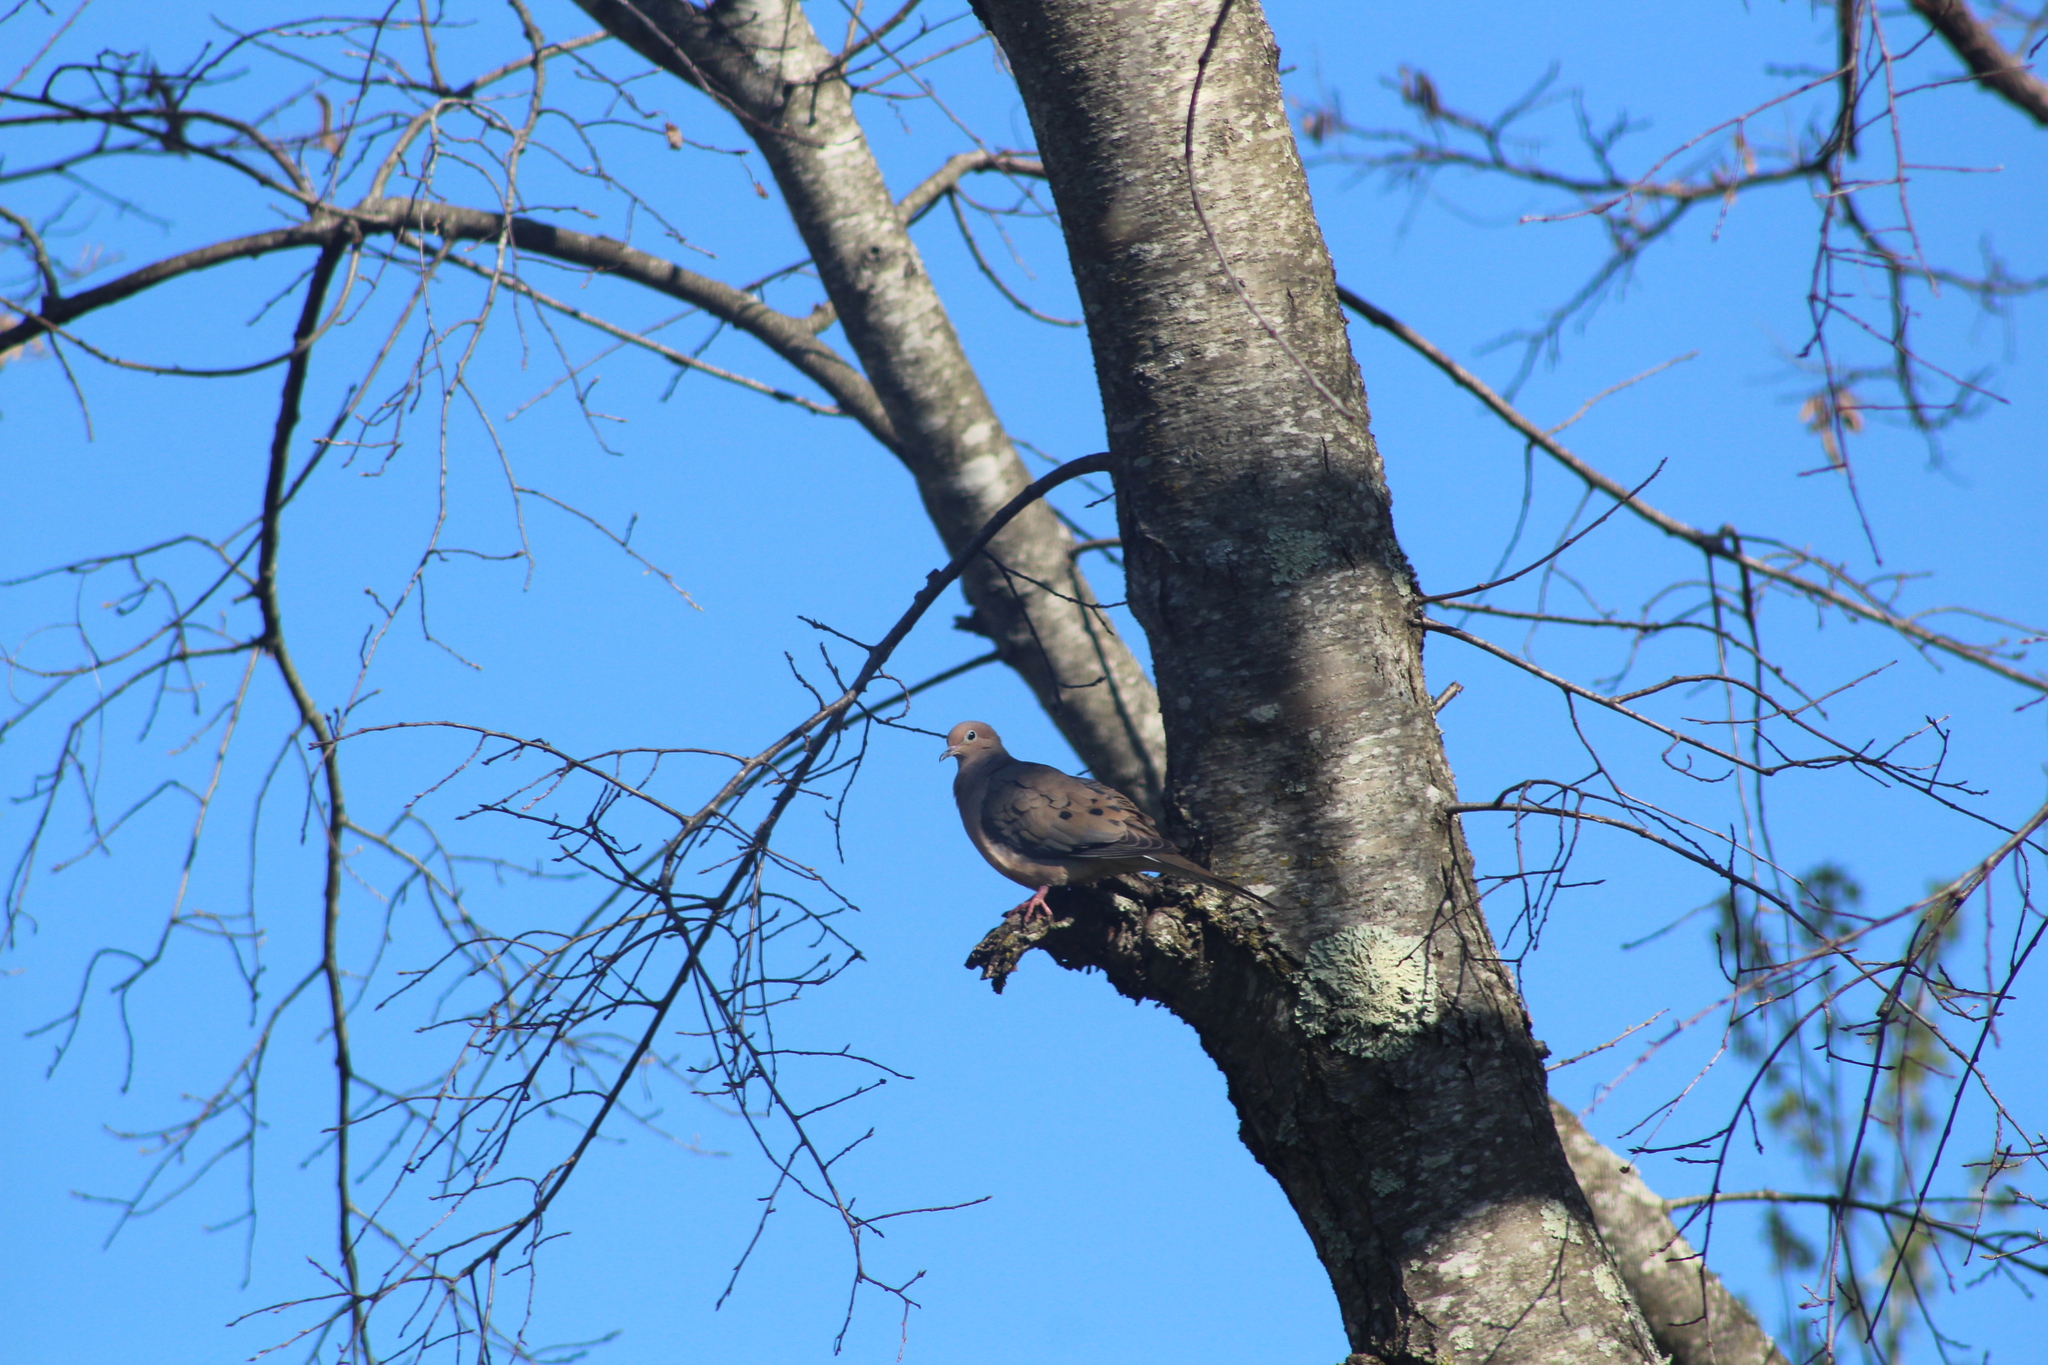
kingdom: Animalia
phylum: Chordata
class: Aves
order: Columbiformes
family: Columbidae
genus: Zenaida
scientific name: Zenaida macroura
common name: Mourning dove
